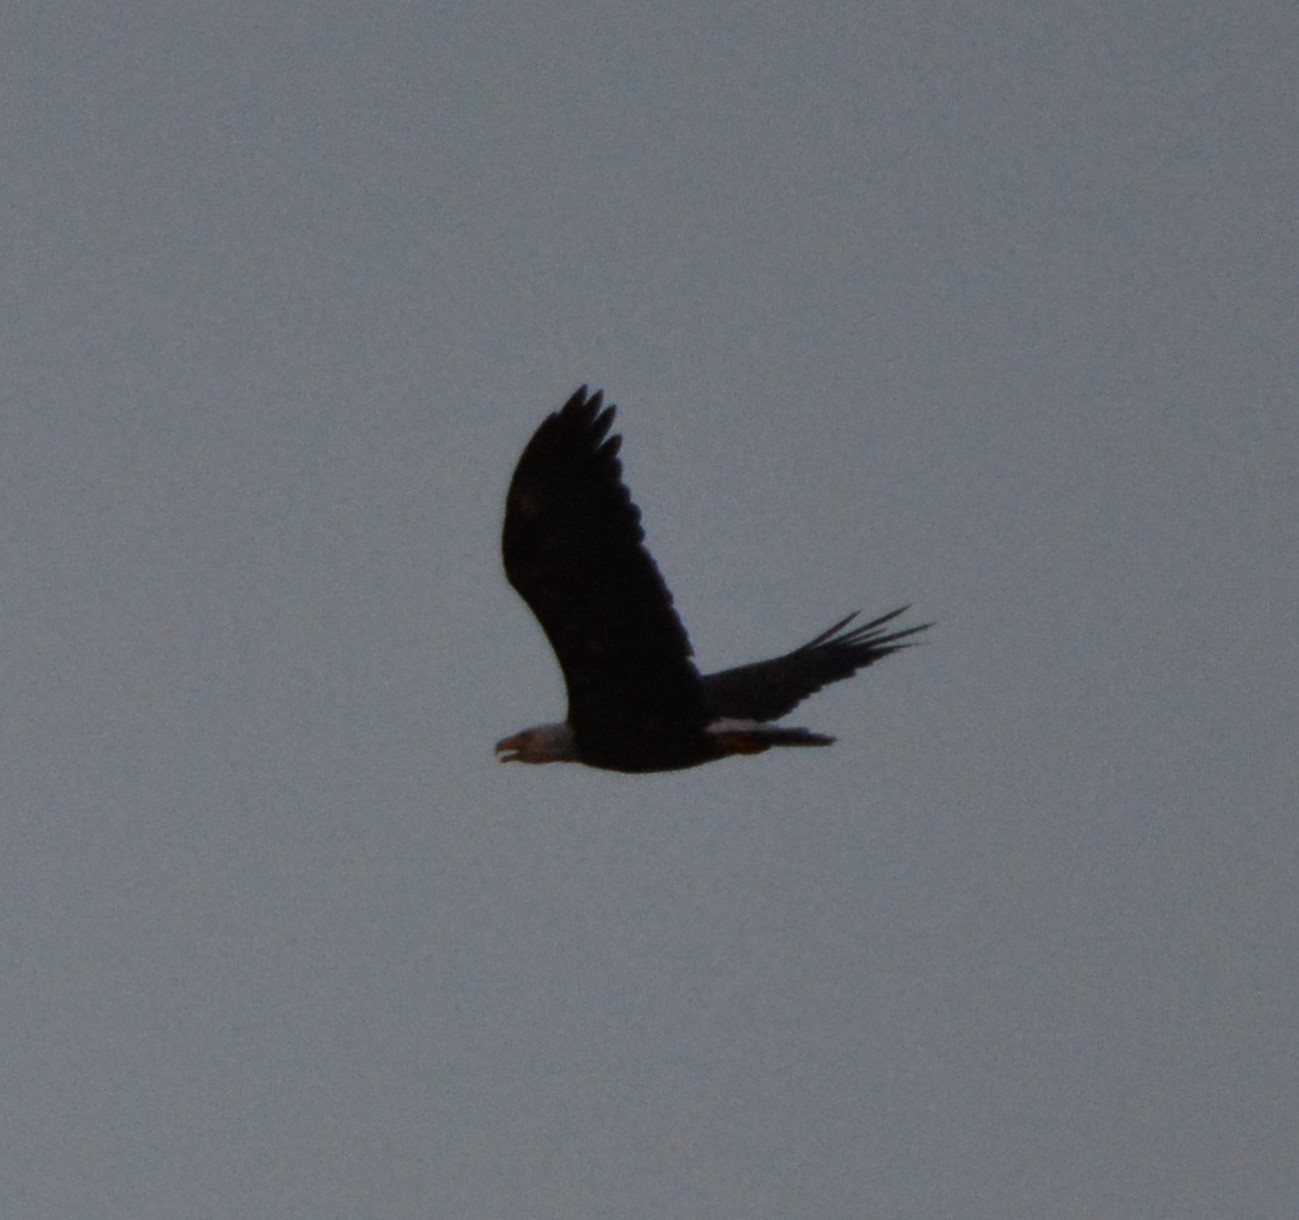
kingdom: Animalia
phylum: Chordata
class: Aves
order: Accipitriformes
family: Accipitridae
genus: Haliaeetus
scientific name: Haliaeetus leucocephalus
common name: Bald eagle
